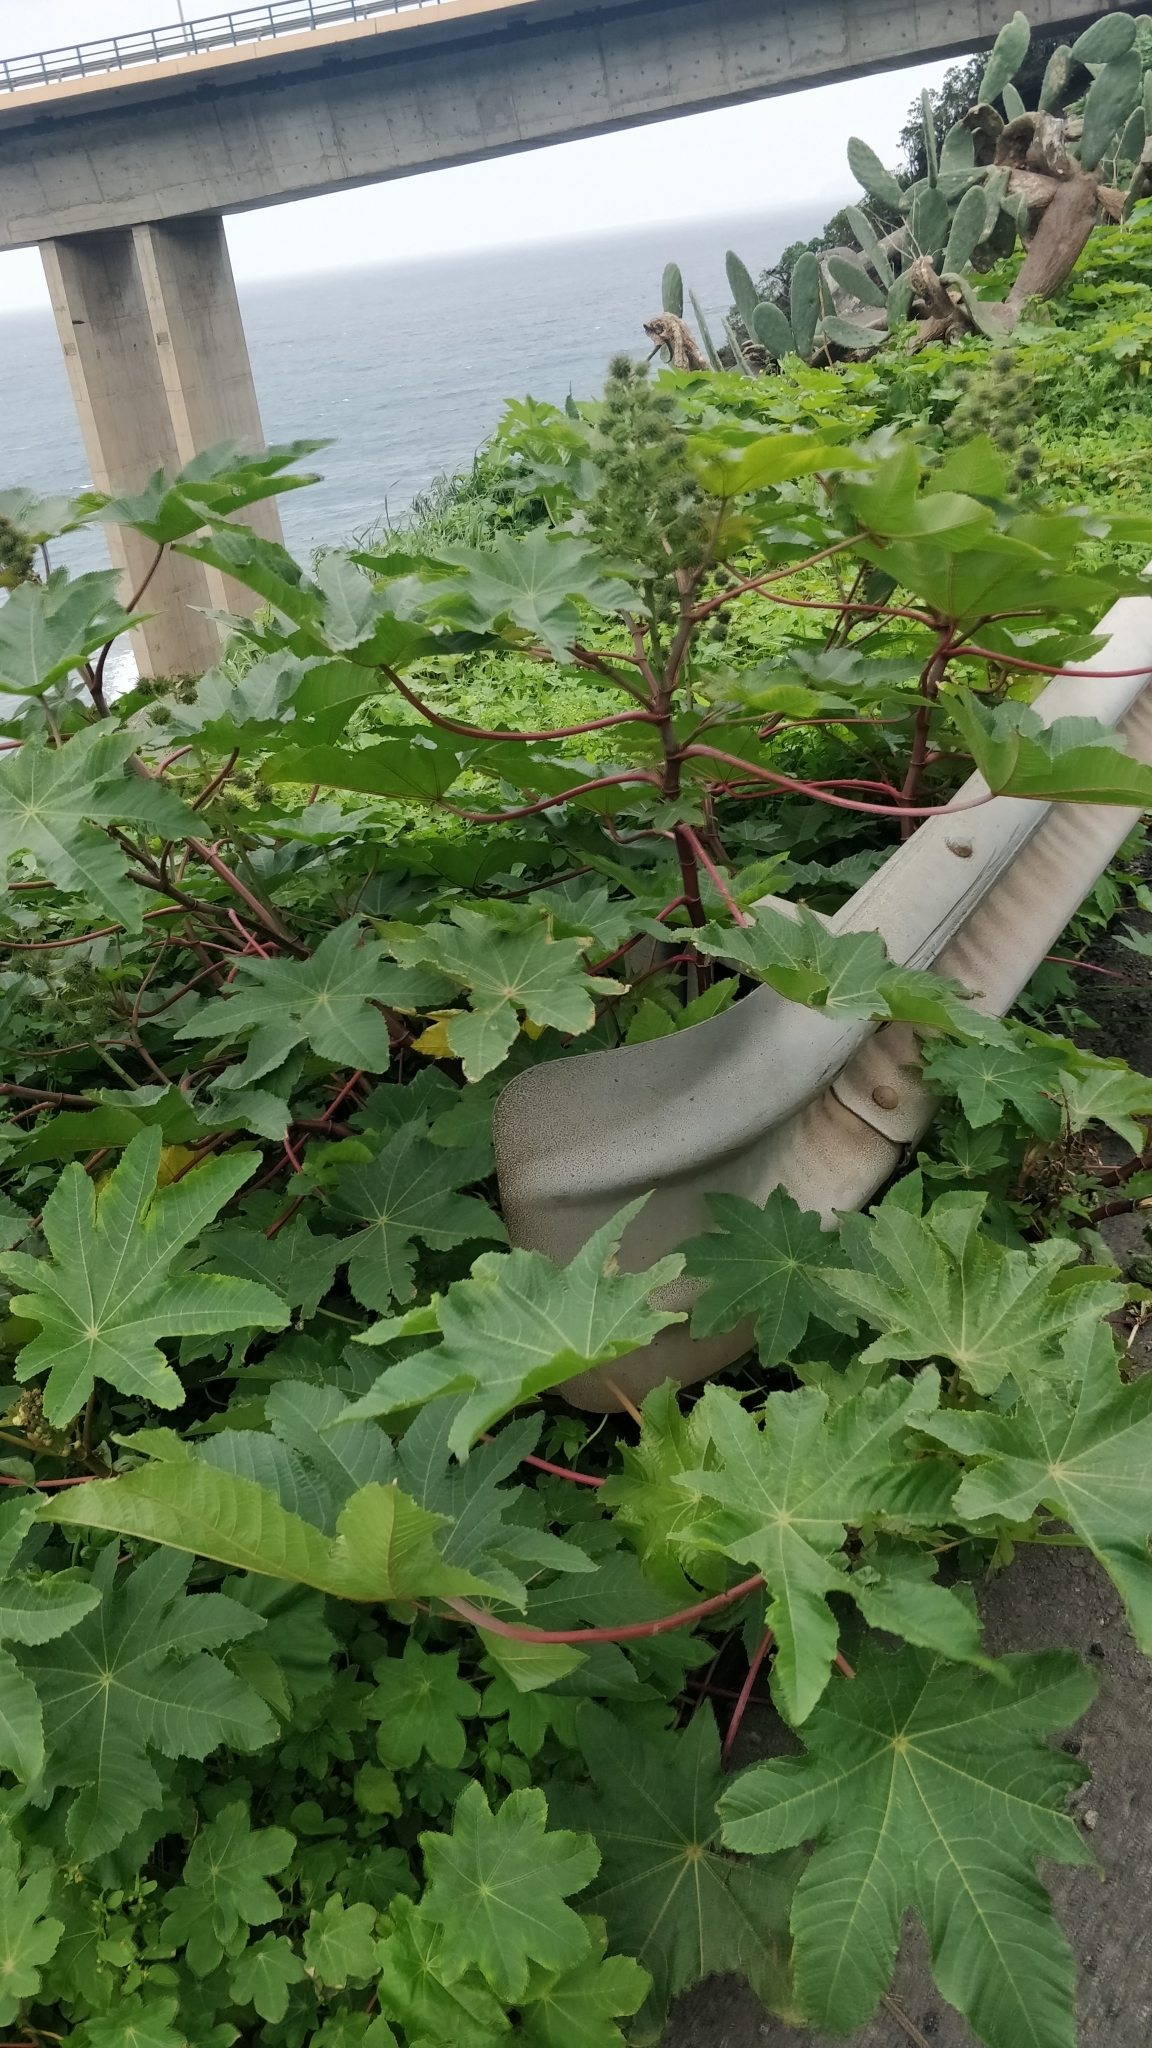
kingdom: Plantae
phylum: Tracheophyta
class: Magnoliopsida
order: Malpighiales
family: Euphorbiaceae
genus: Ricinus
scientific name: Ricinus communis
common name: Castor-oil-plant
